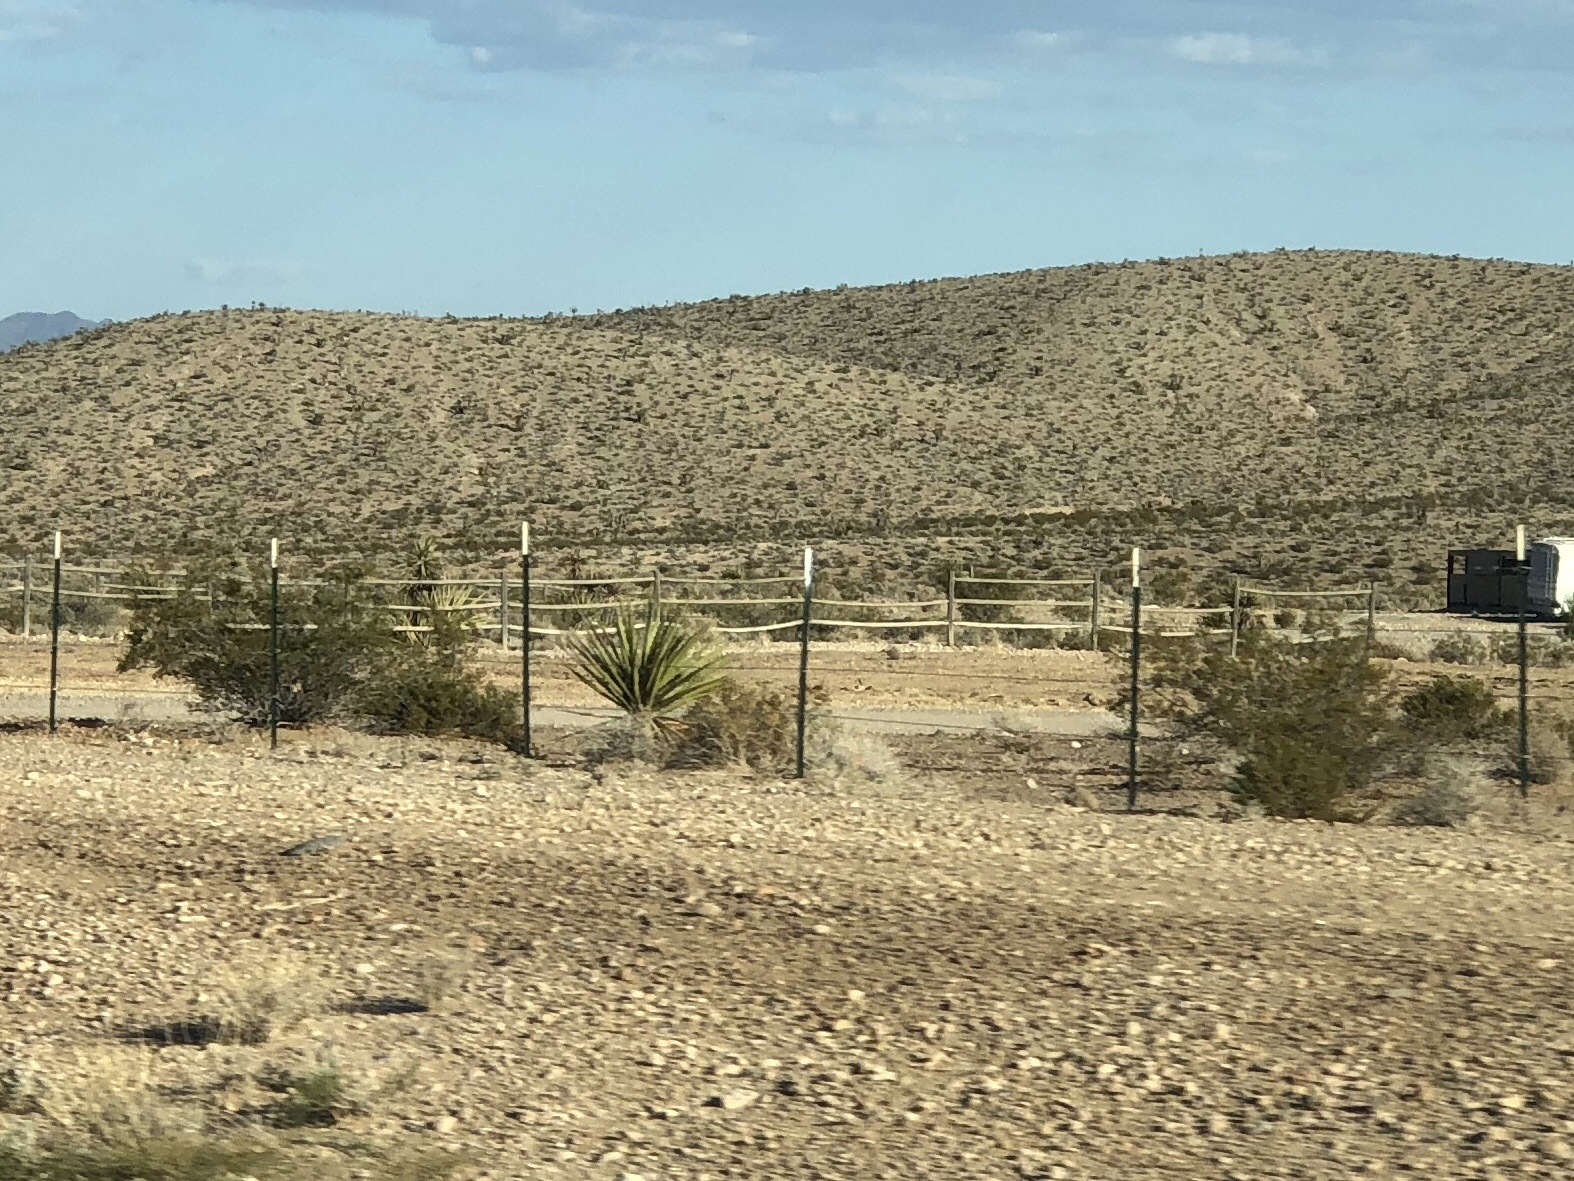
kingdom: Plantae
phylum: Tracheophyta
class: Magnoliopsida
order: Zygophyllales
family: Zygophyllaceae
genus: Larrea
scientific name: Larrea tridentata
